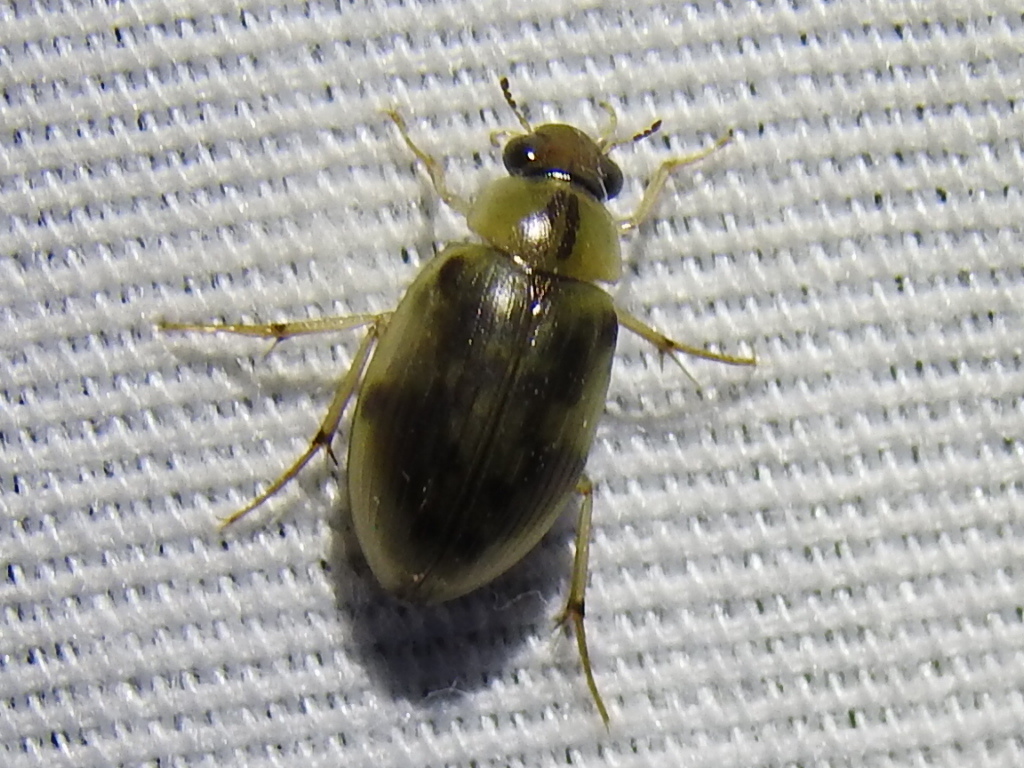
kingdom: Animalia
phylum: Arthropoda
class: Insecta
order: Coleoptera
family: Hydrophilidae
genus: Berosus
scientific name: Berosus miles
